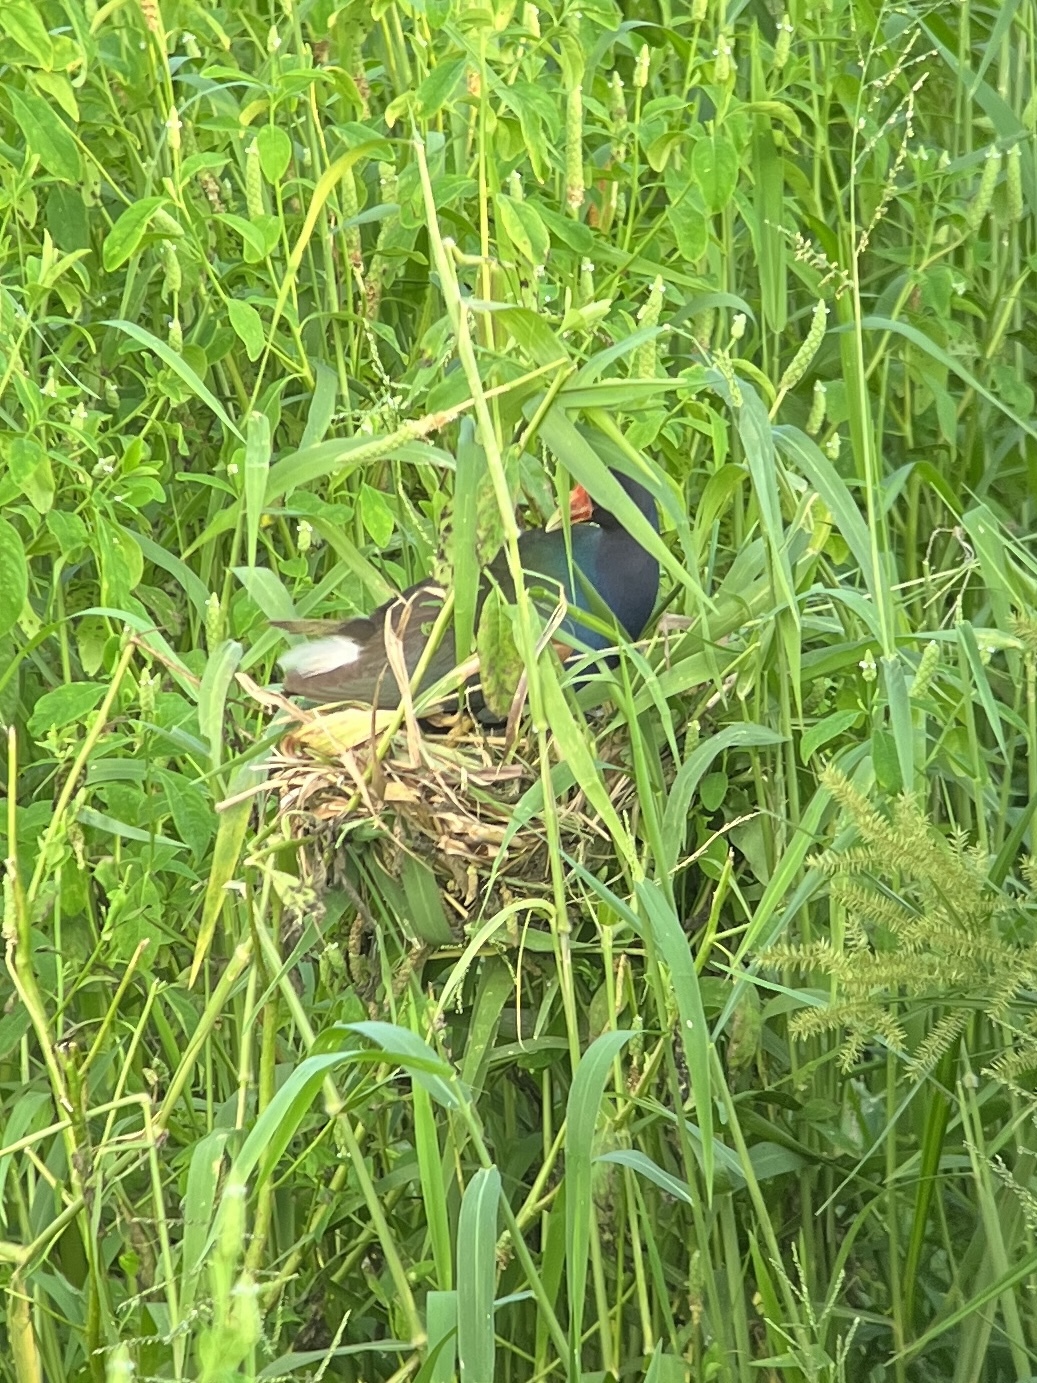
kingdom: Animalia
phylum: Chordata
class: Aves
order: Gruiformes
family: Rallidae
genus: Porphyrio
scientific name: Porphyrio martinica
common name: Purple gallinule
